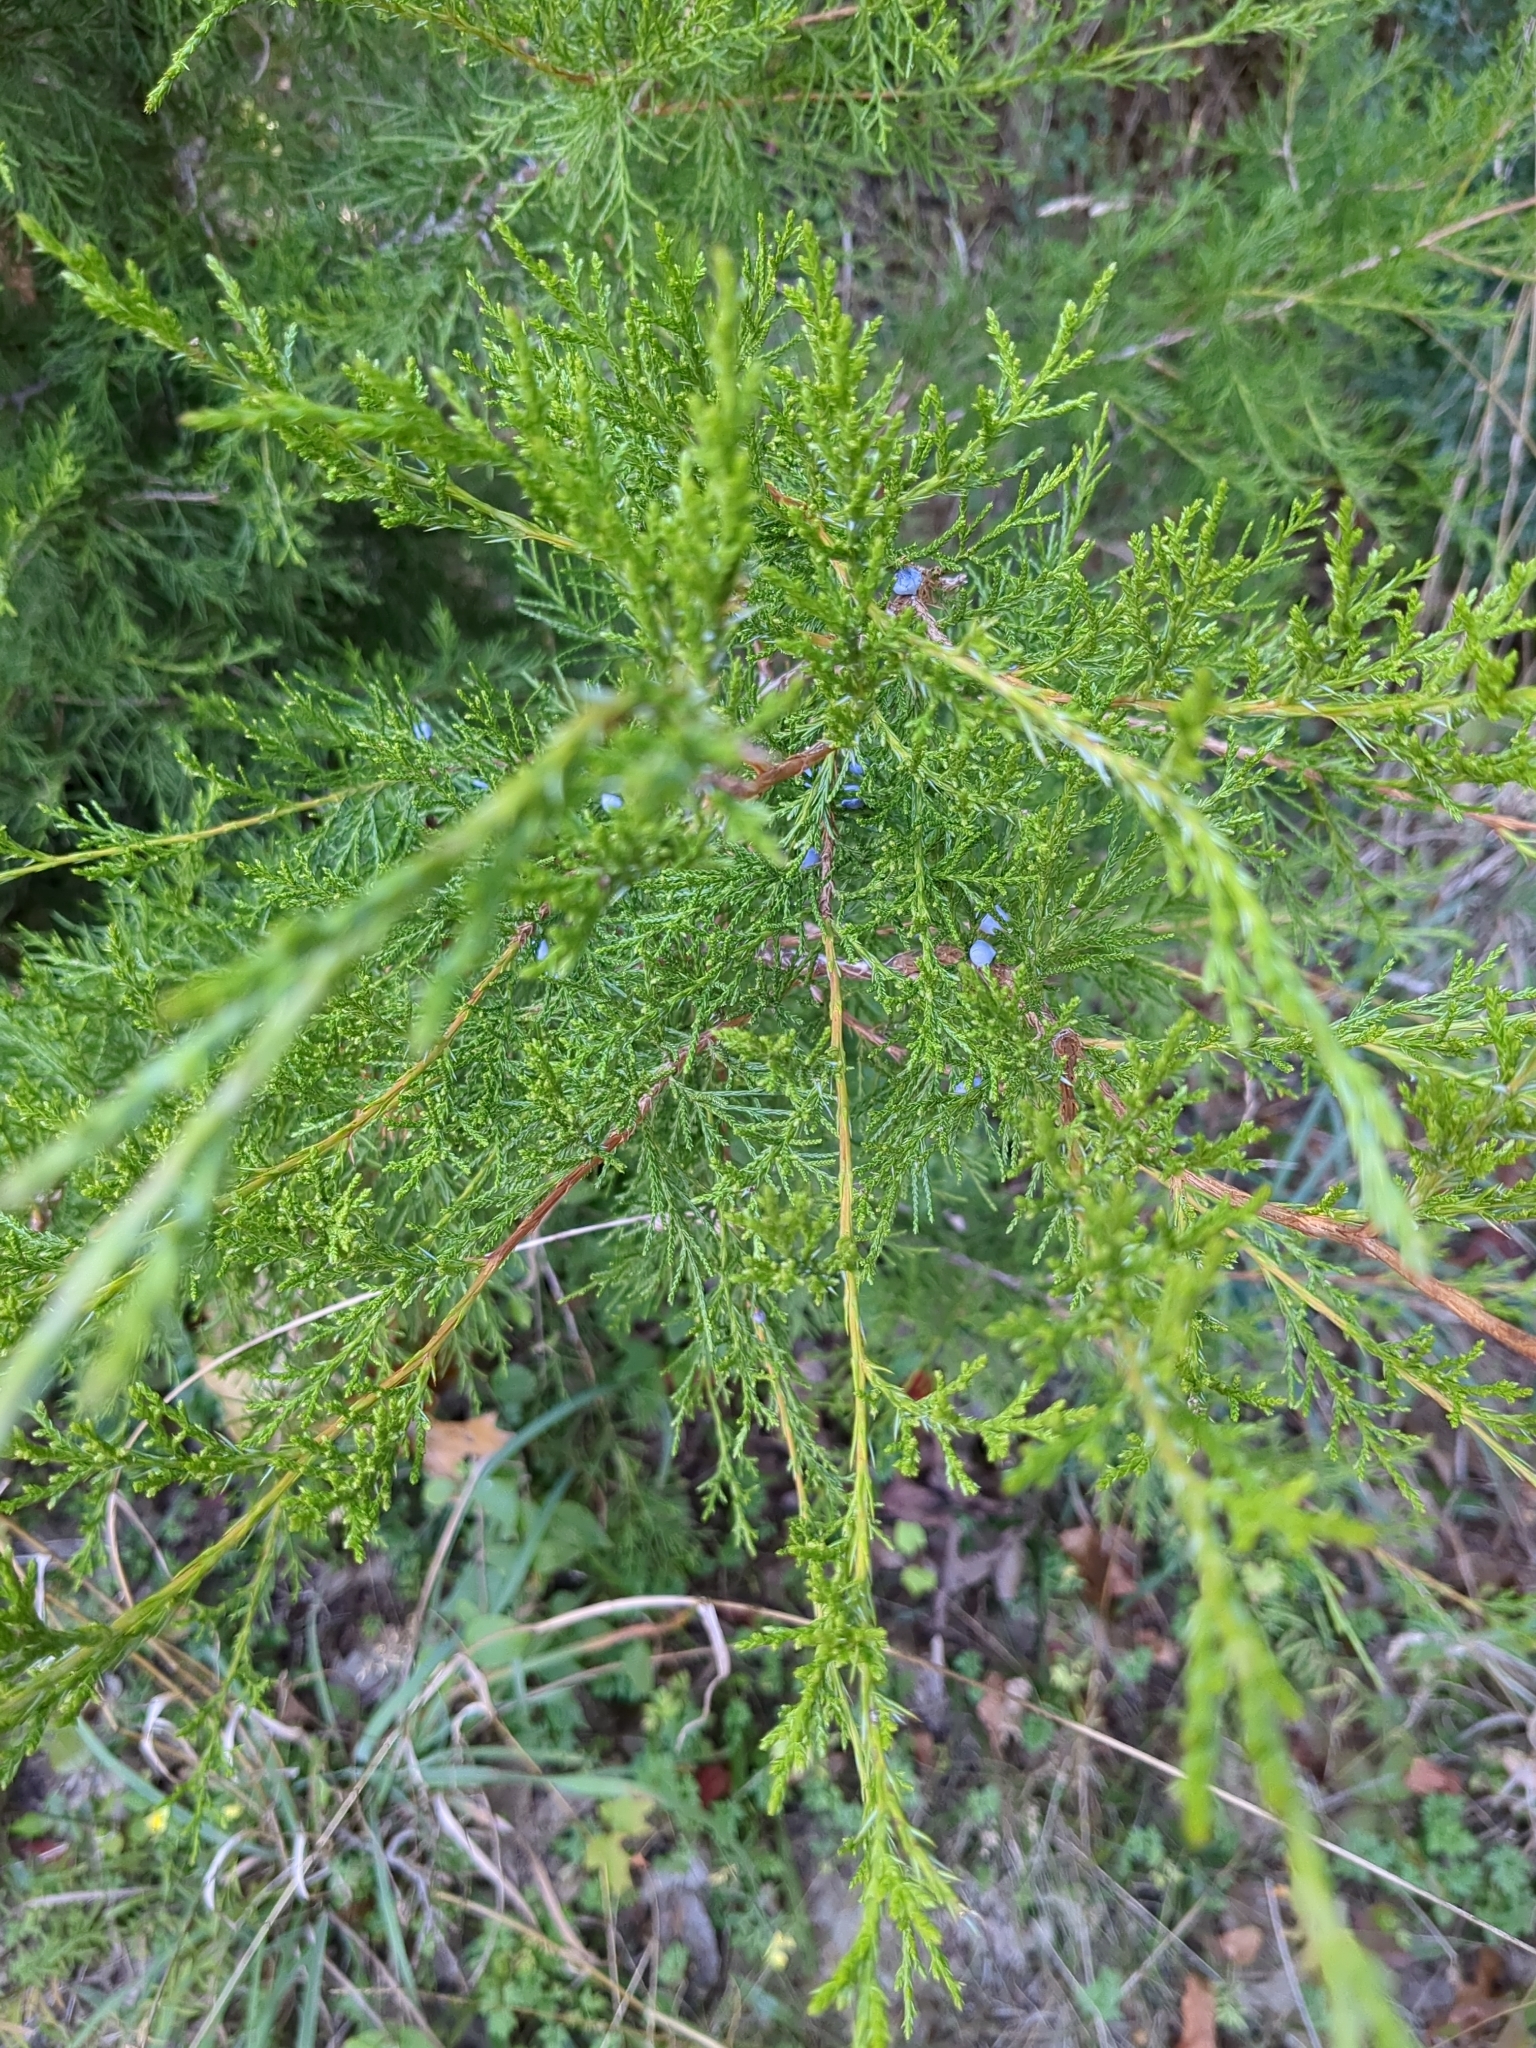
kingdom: Plantae
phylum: Tracheophyta
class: Pinopsida
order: Pinales
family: Cupressaceae
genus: Juniperus
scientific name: Juniperus virginiana
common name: Red juniper
